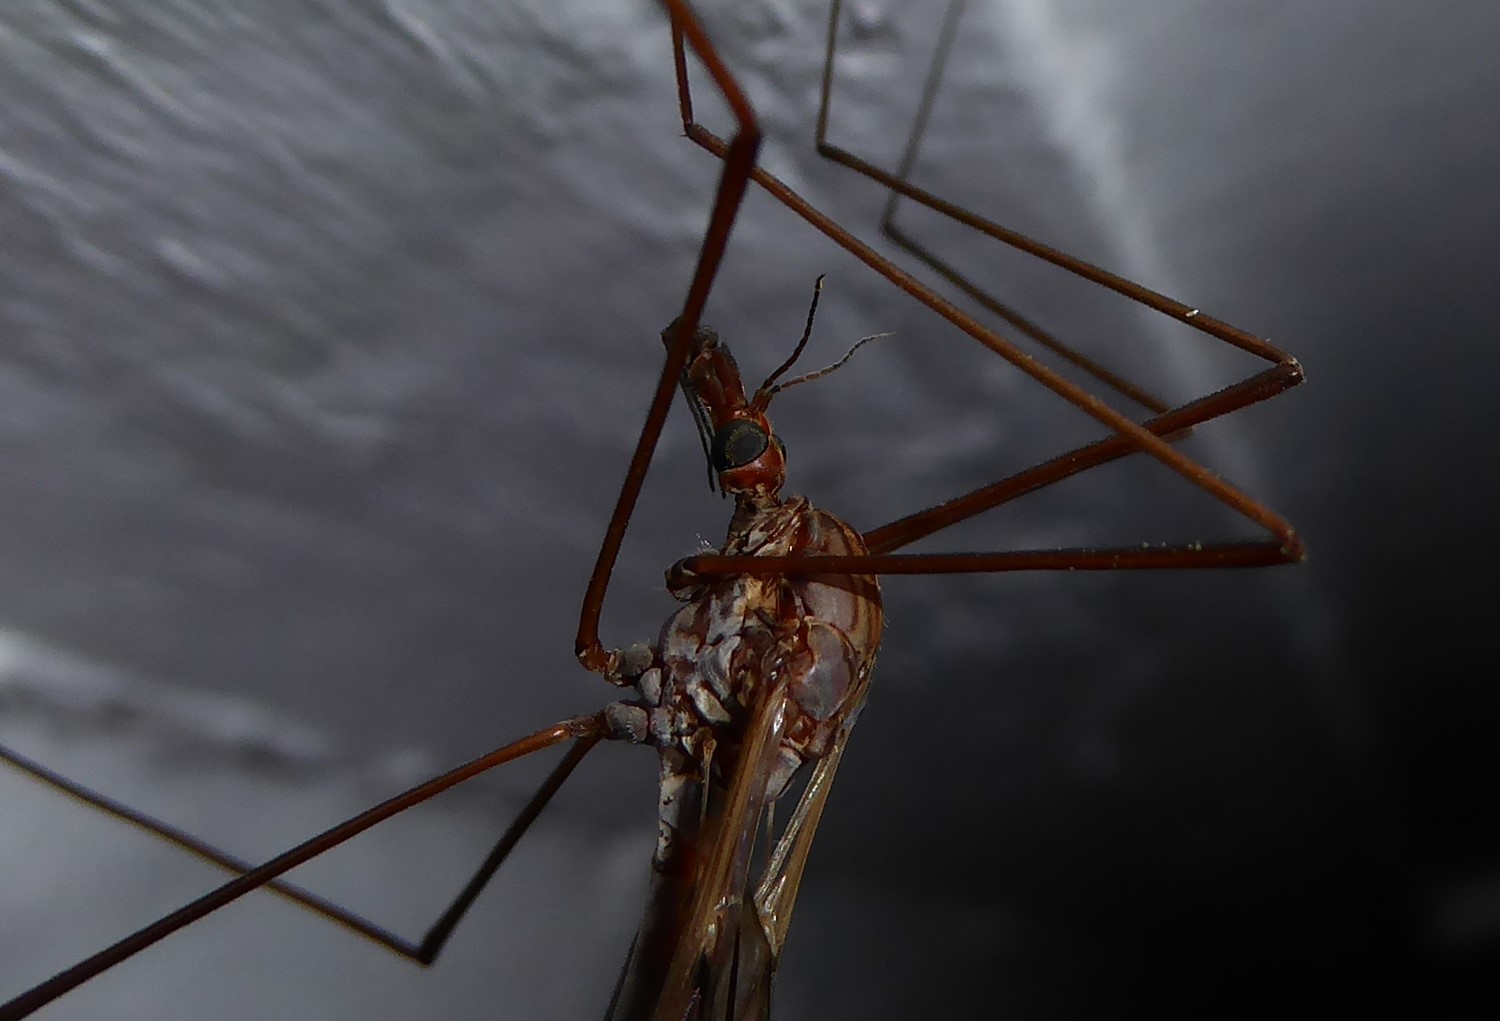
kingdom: Animalia
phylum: Arthropoda
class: Insecta
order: Diptera
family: Tipulidae
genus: Zelandotipula
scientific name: Zelandotipula novarae
